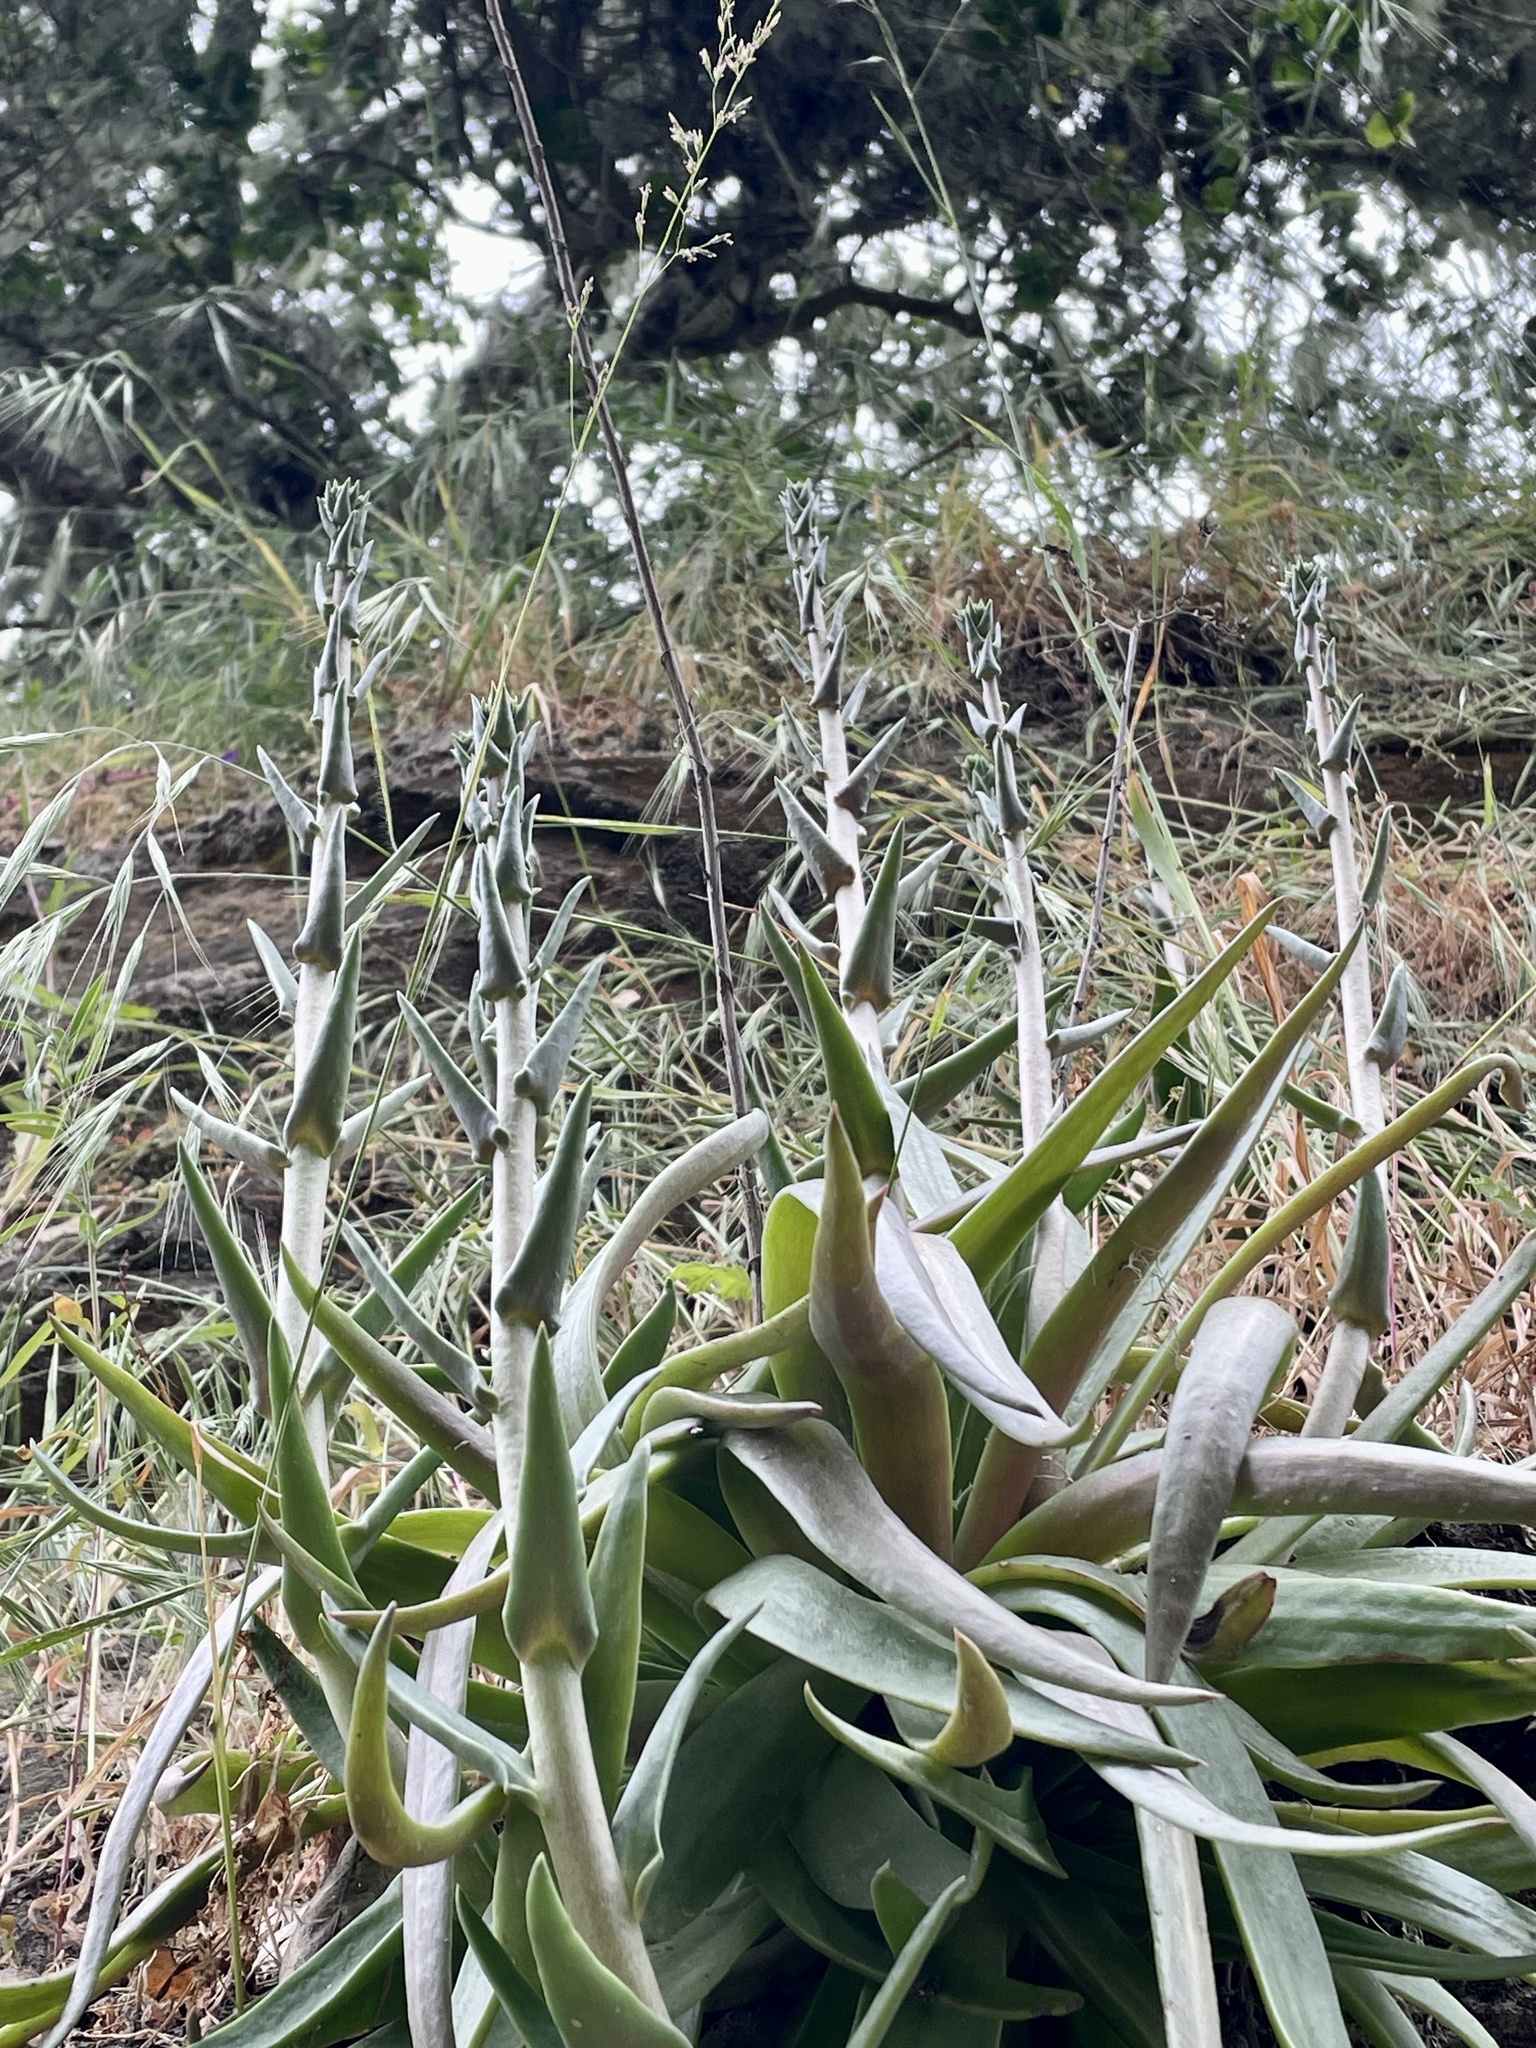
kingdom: Plantae
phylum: Tracheophyta
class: Magnoliopsida
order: Saxifragales
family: Crassulaceae
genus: Dudleya
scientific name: Dudleya lanceolata
